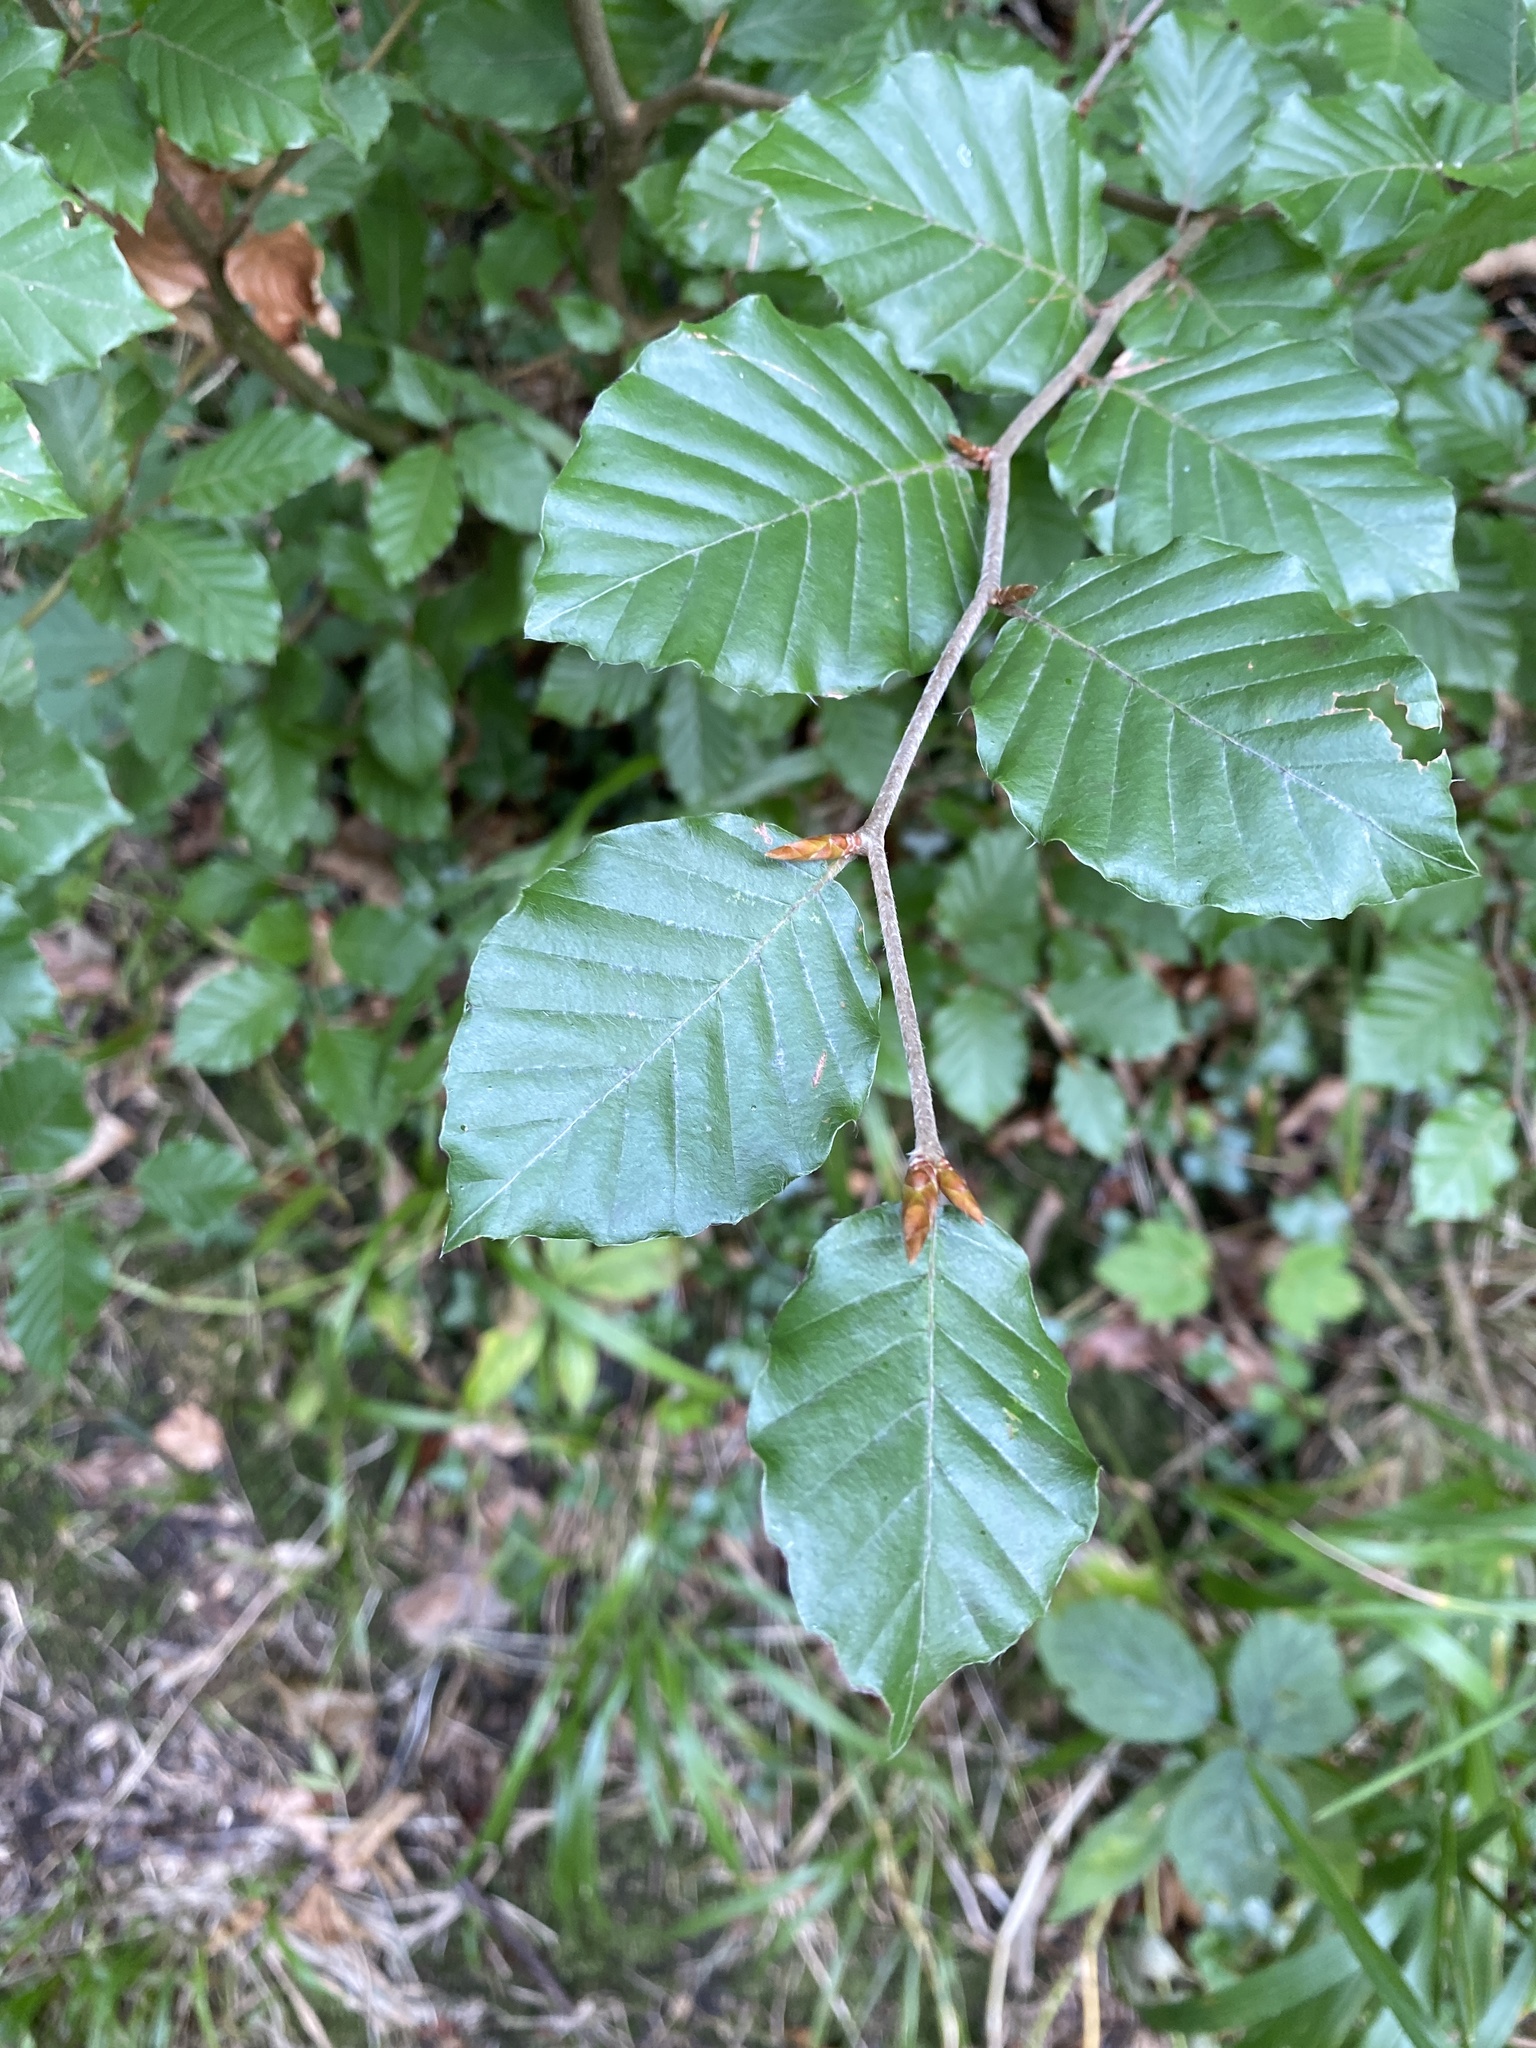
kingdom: Plantae
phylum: Tracheophyta
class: Magnoliopsida
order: Fagales
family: Fagaceae
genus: Fagus
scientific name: Fagus sylvatica
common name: Beech
